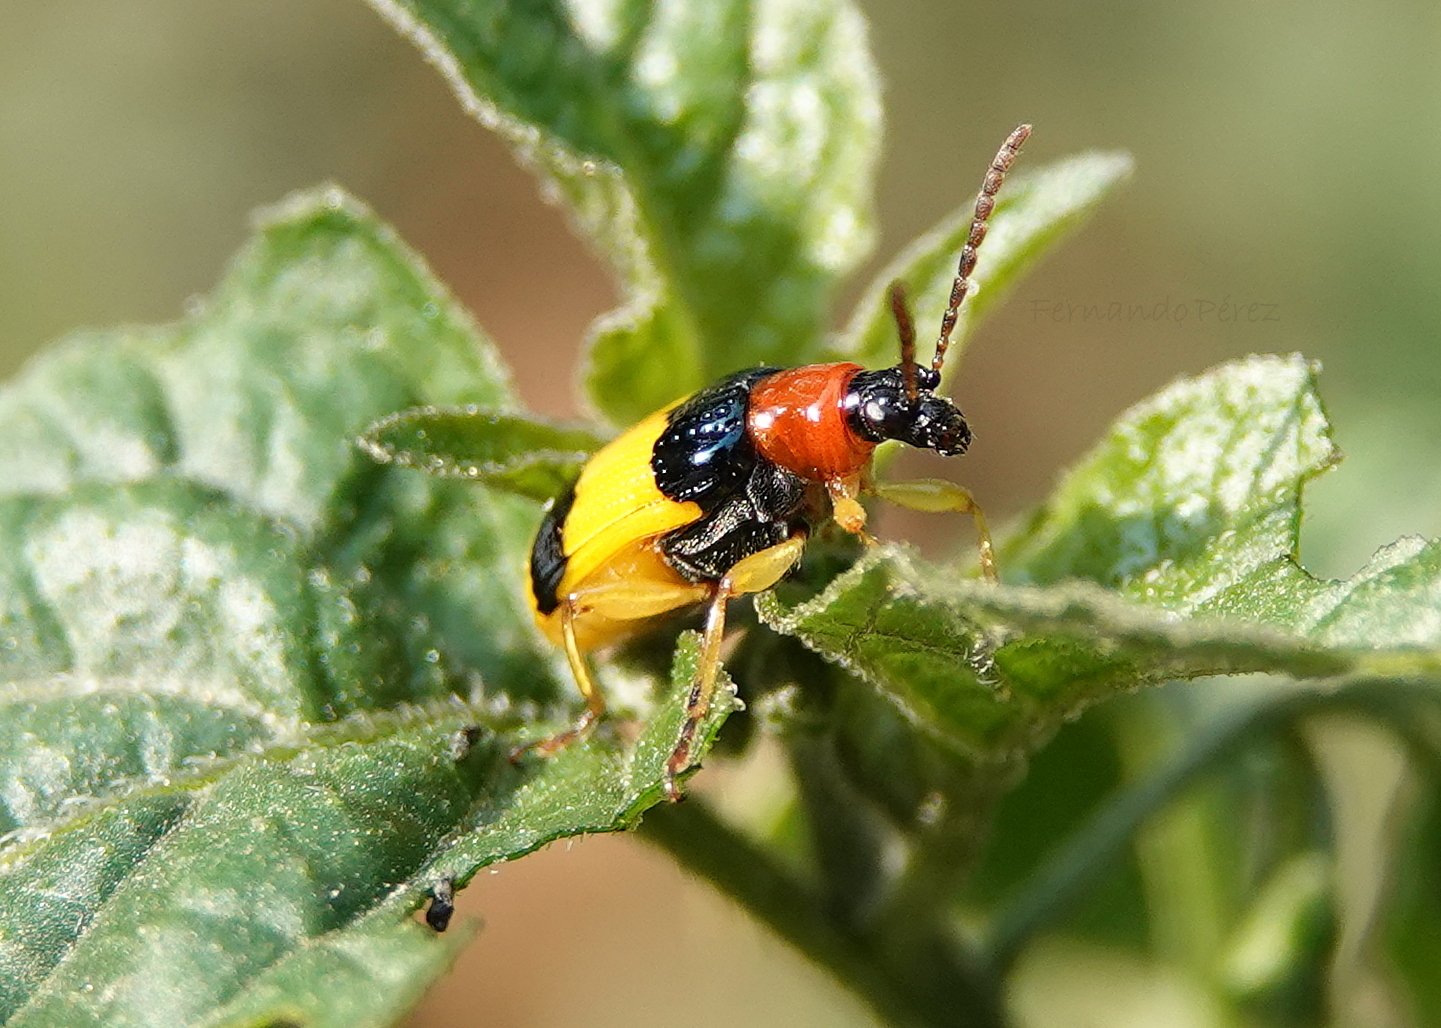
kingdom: Animalia
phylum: Arthropoda
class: Insecta
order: Coleoptera
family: Chrysomelidae
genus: Lema
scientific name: Lema
